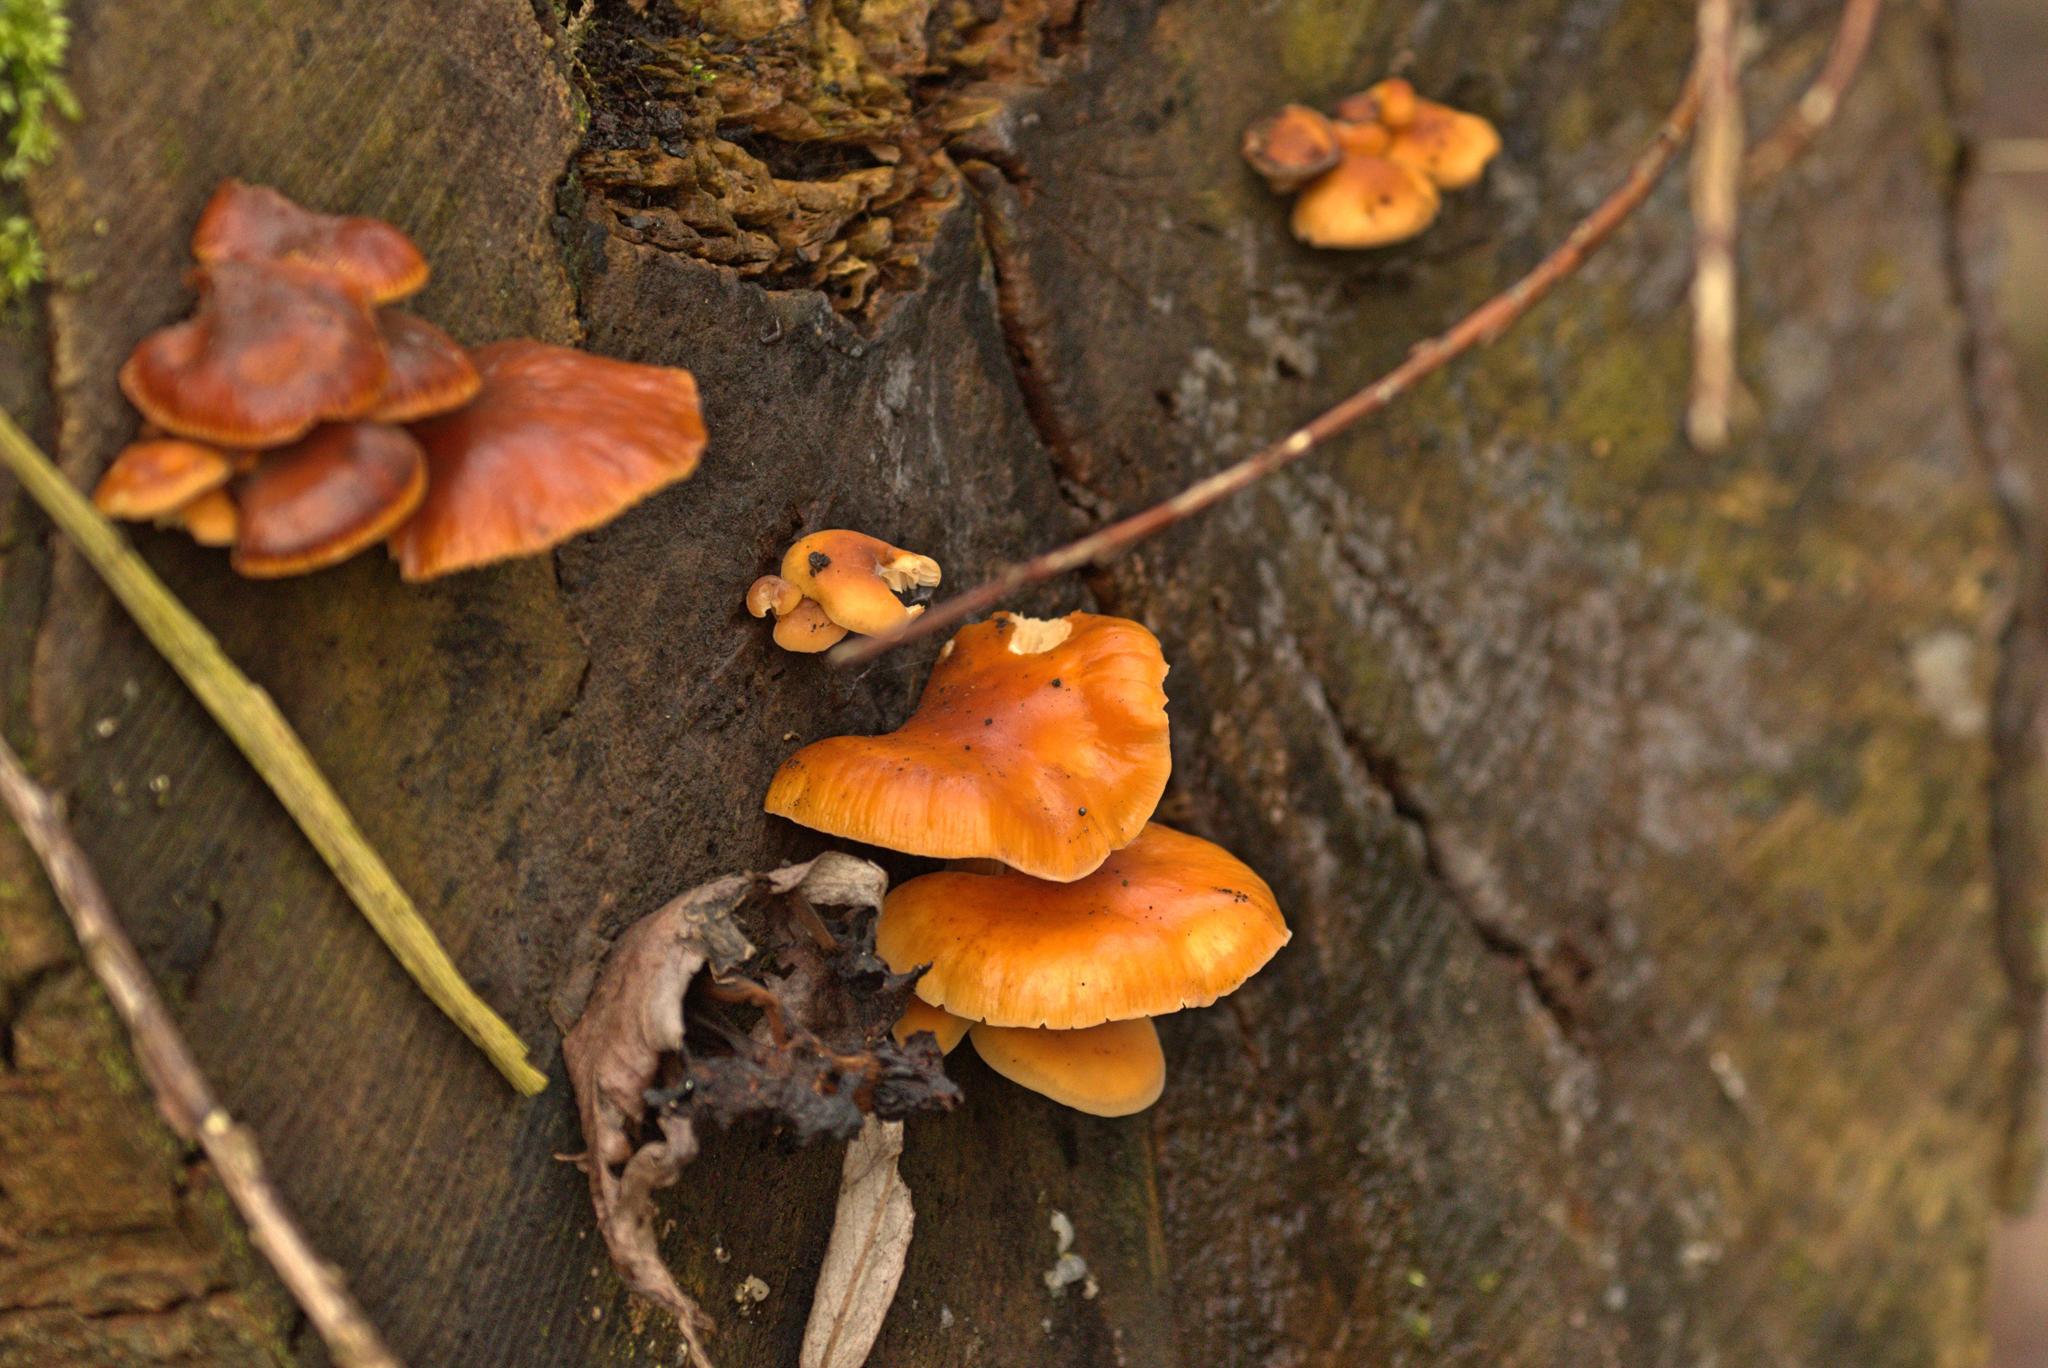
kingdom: Fungi
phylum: Basidiomycota
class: Agaricomycetes
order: Agaricales
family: Physalacriaceae
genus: Flammulina
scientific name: Flammulina
